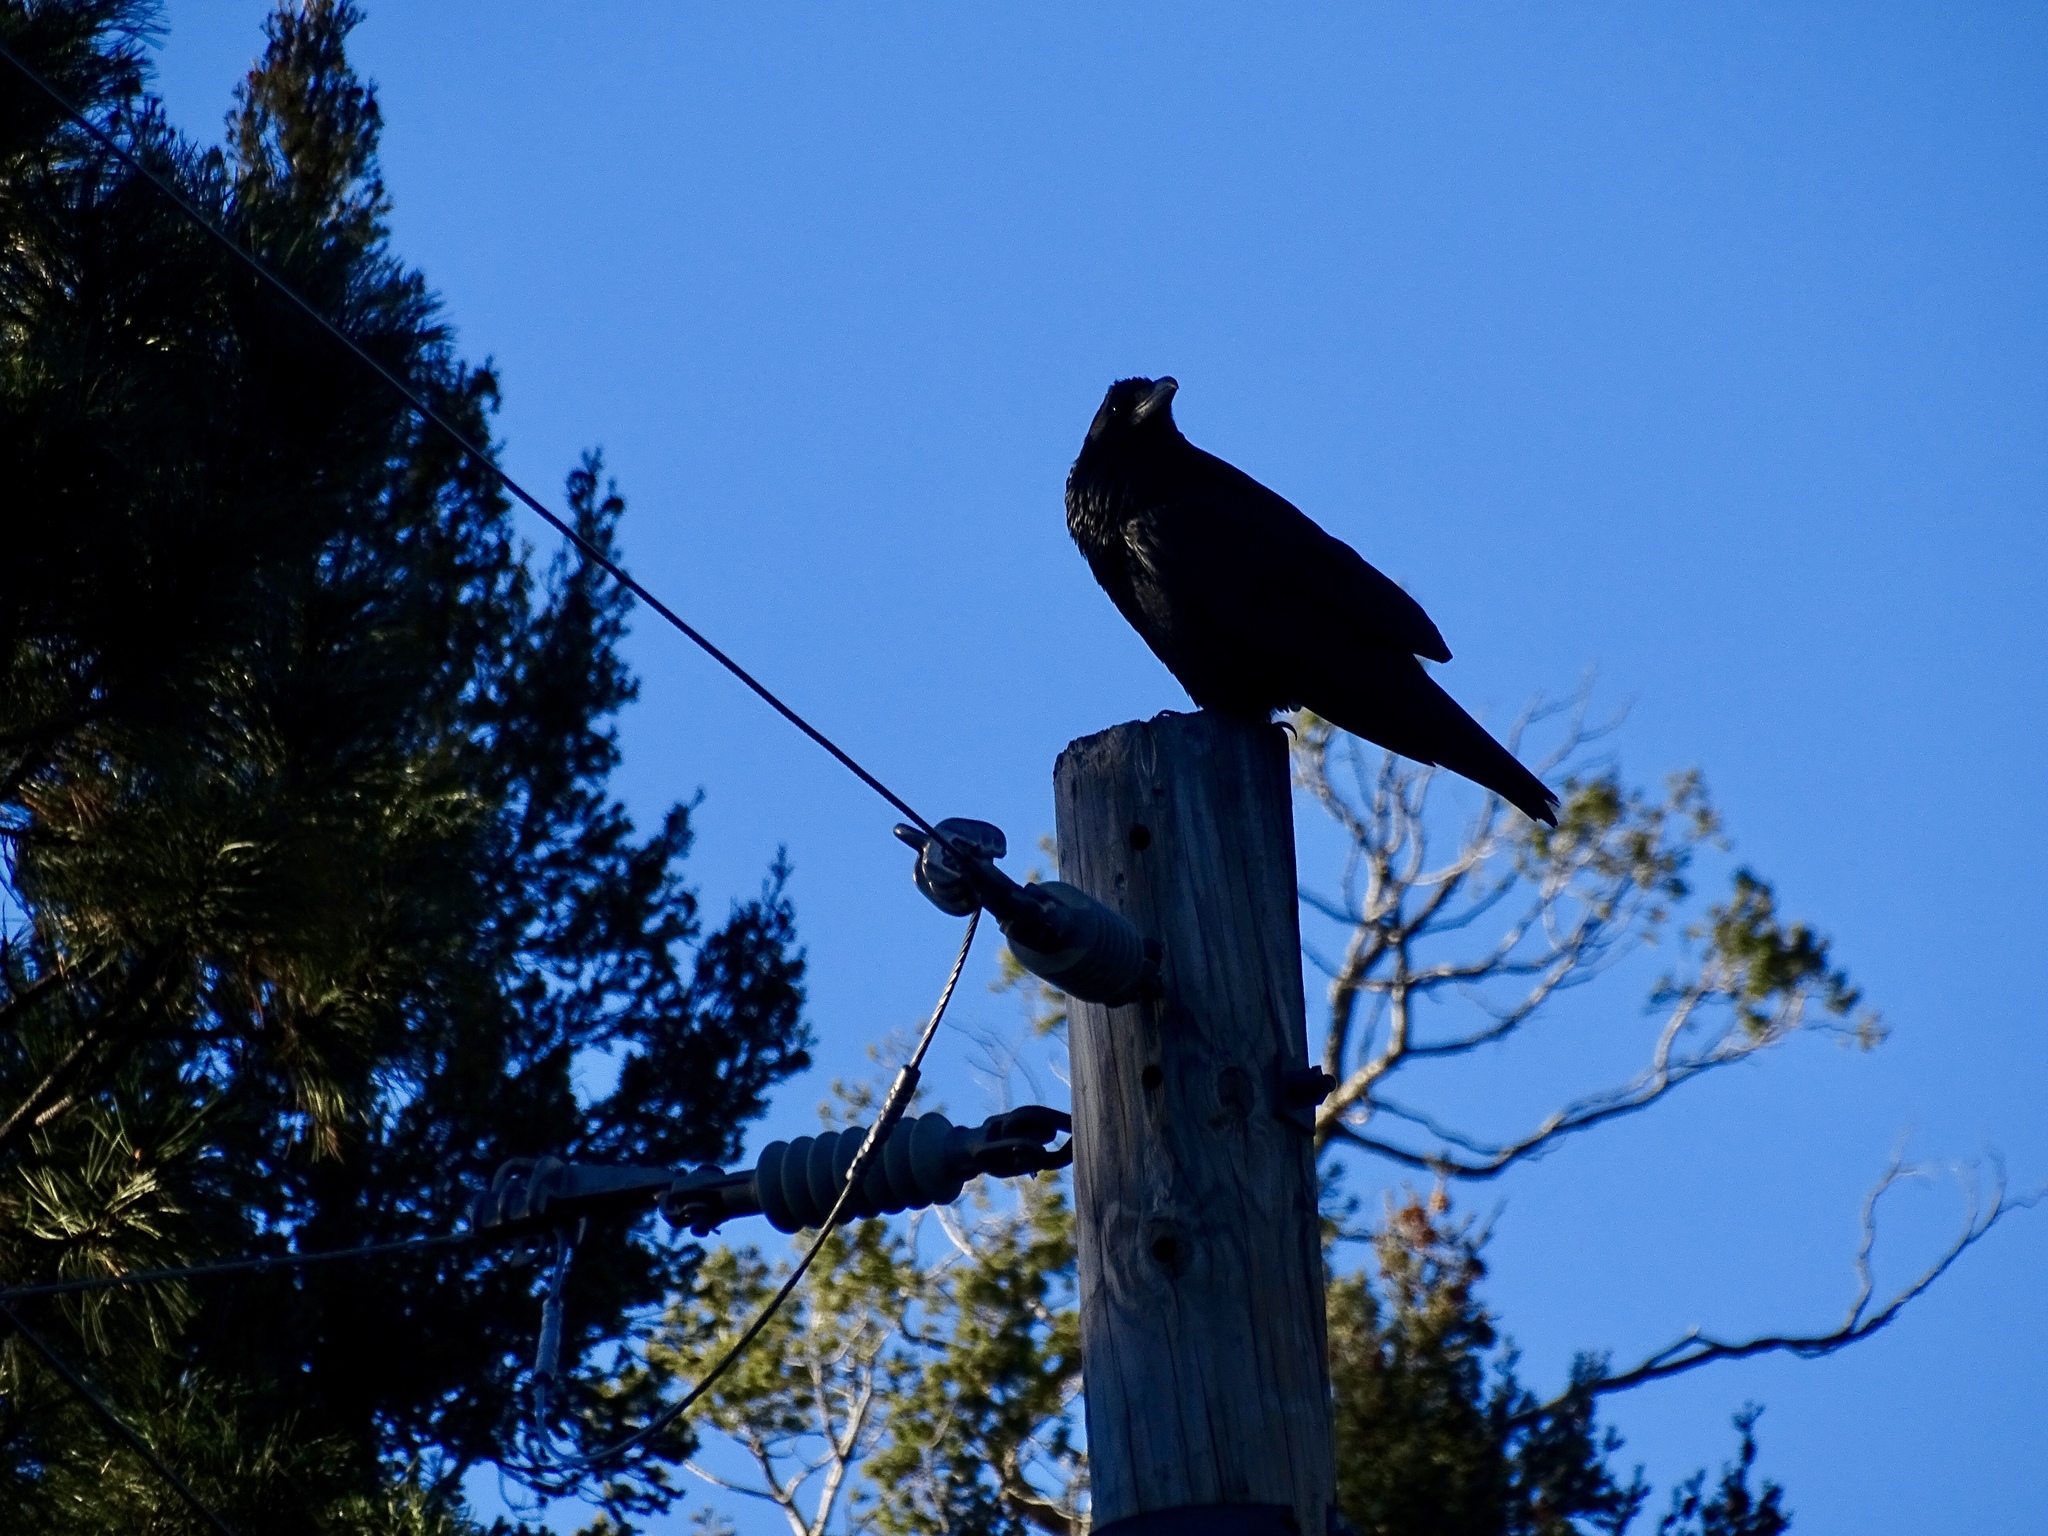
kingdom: Animalia
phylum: Chordata
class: Aves
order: Passeriformes
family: Corvidae
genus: Corvus
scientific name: Corvus corax
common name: Common raven
